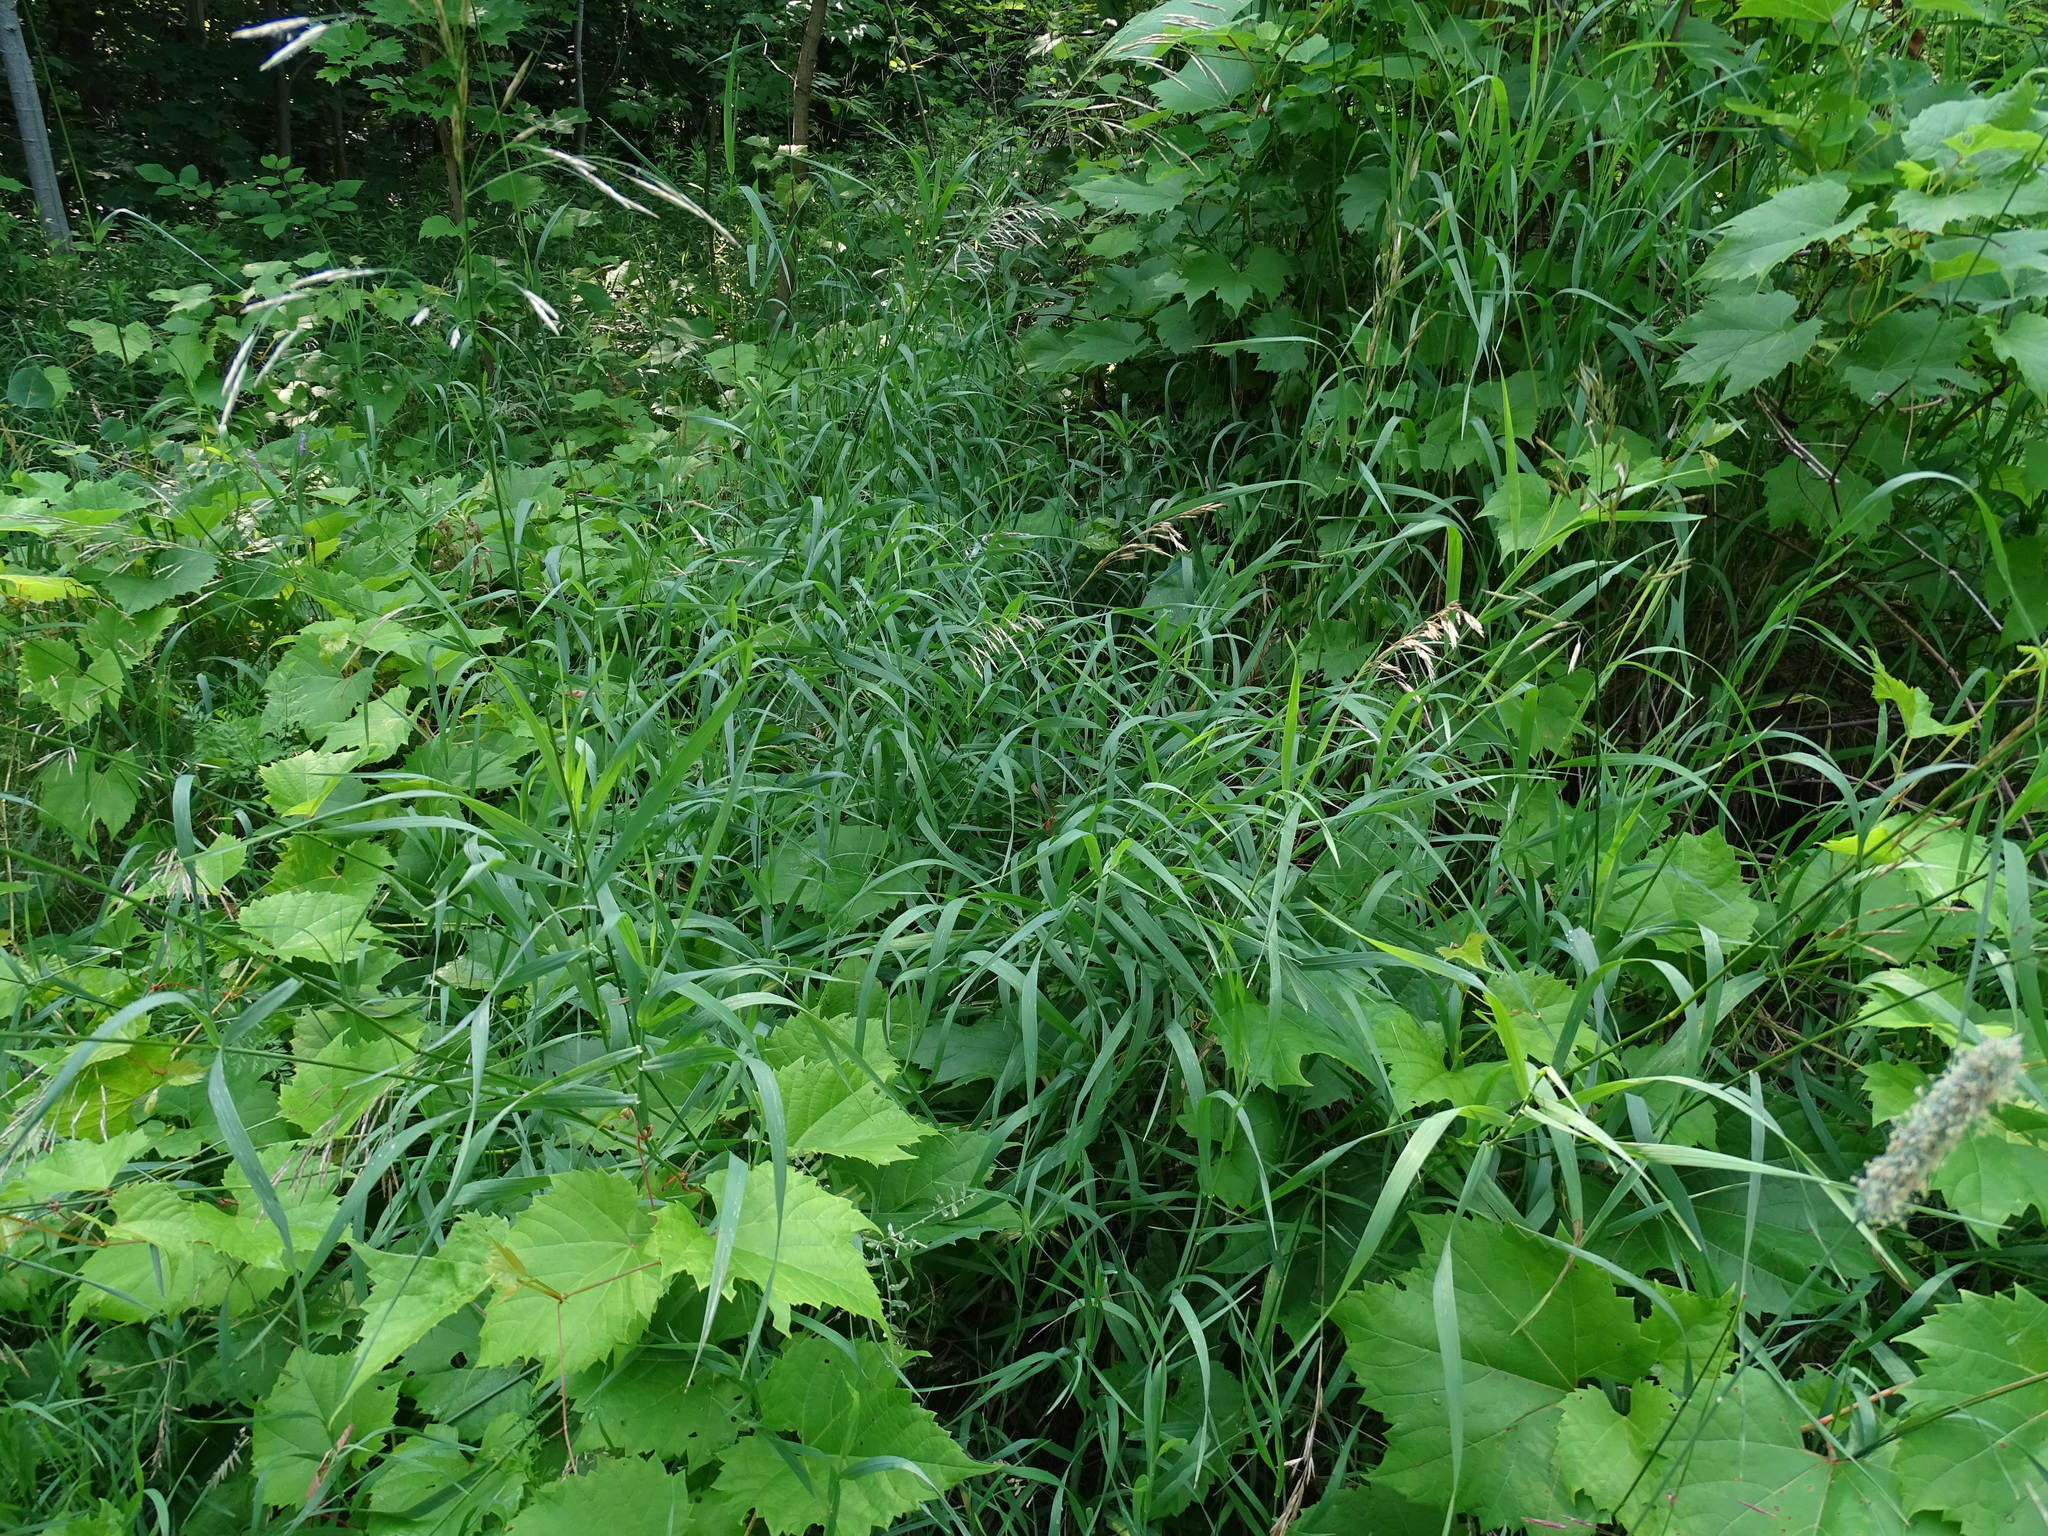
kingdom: Plantae
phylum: Tracheophyta
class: Liliopsida
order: Poales
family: Poaceae
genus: Bromus
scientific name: Bromus inermis
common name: Smooth brome
